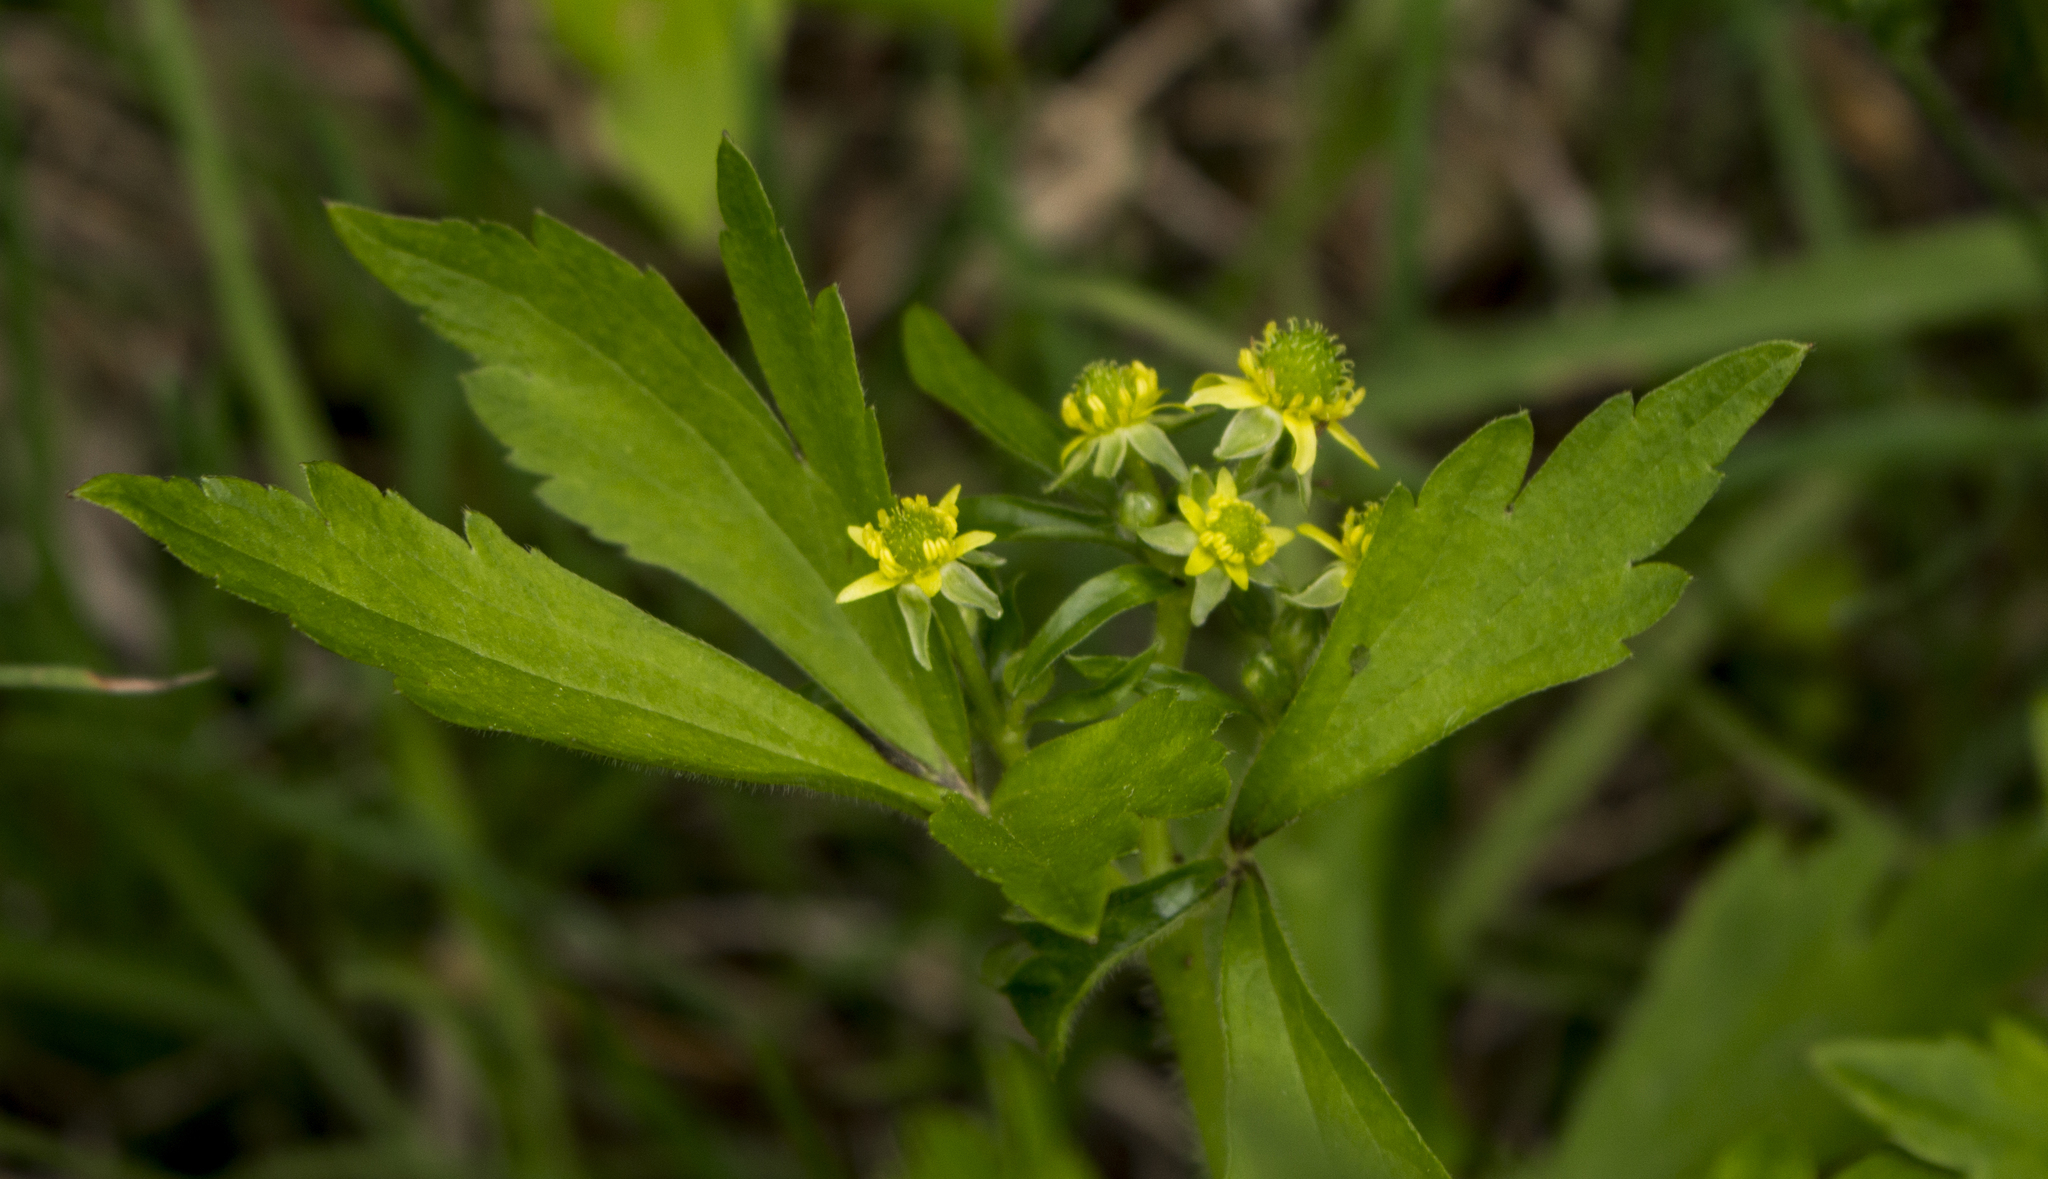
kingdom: Plantae
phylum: Tracheophyta
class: Magnoliopsida
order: Ranunculales
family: Ranunculaceae
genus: Ranunculus
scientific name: Ranunculus recurvatus
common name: Blisterwort
